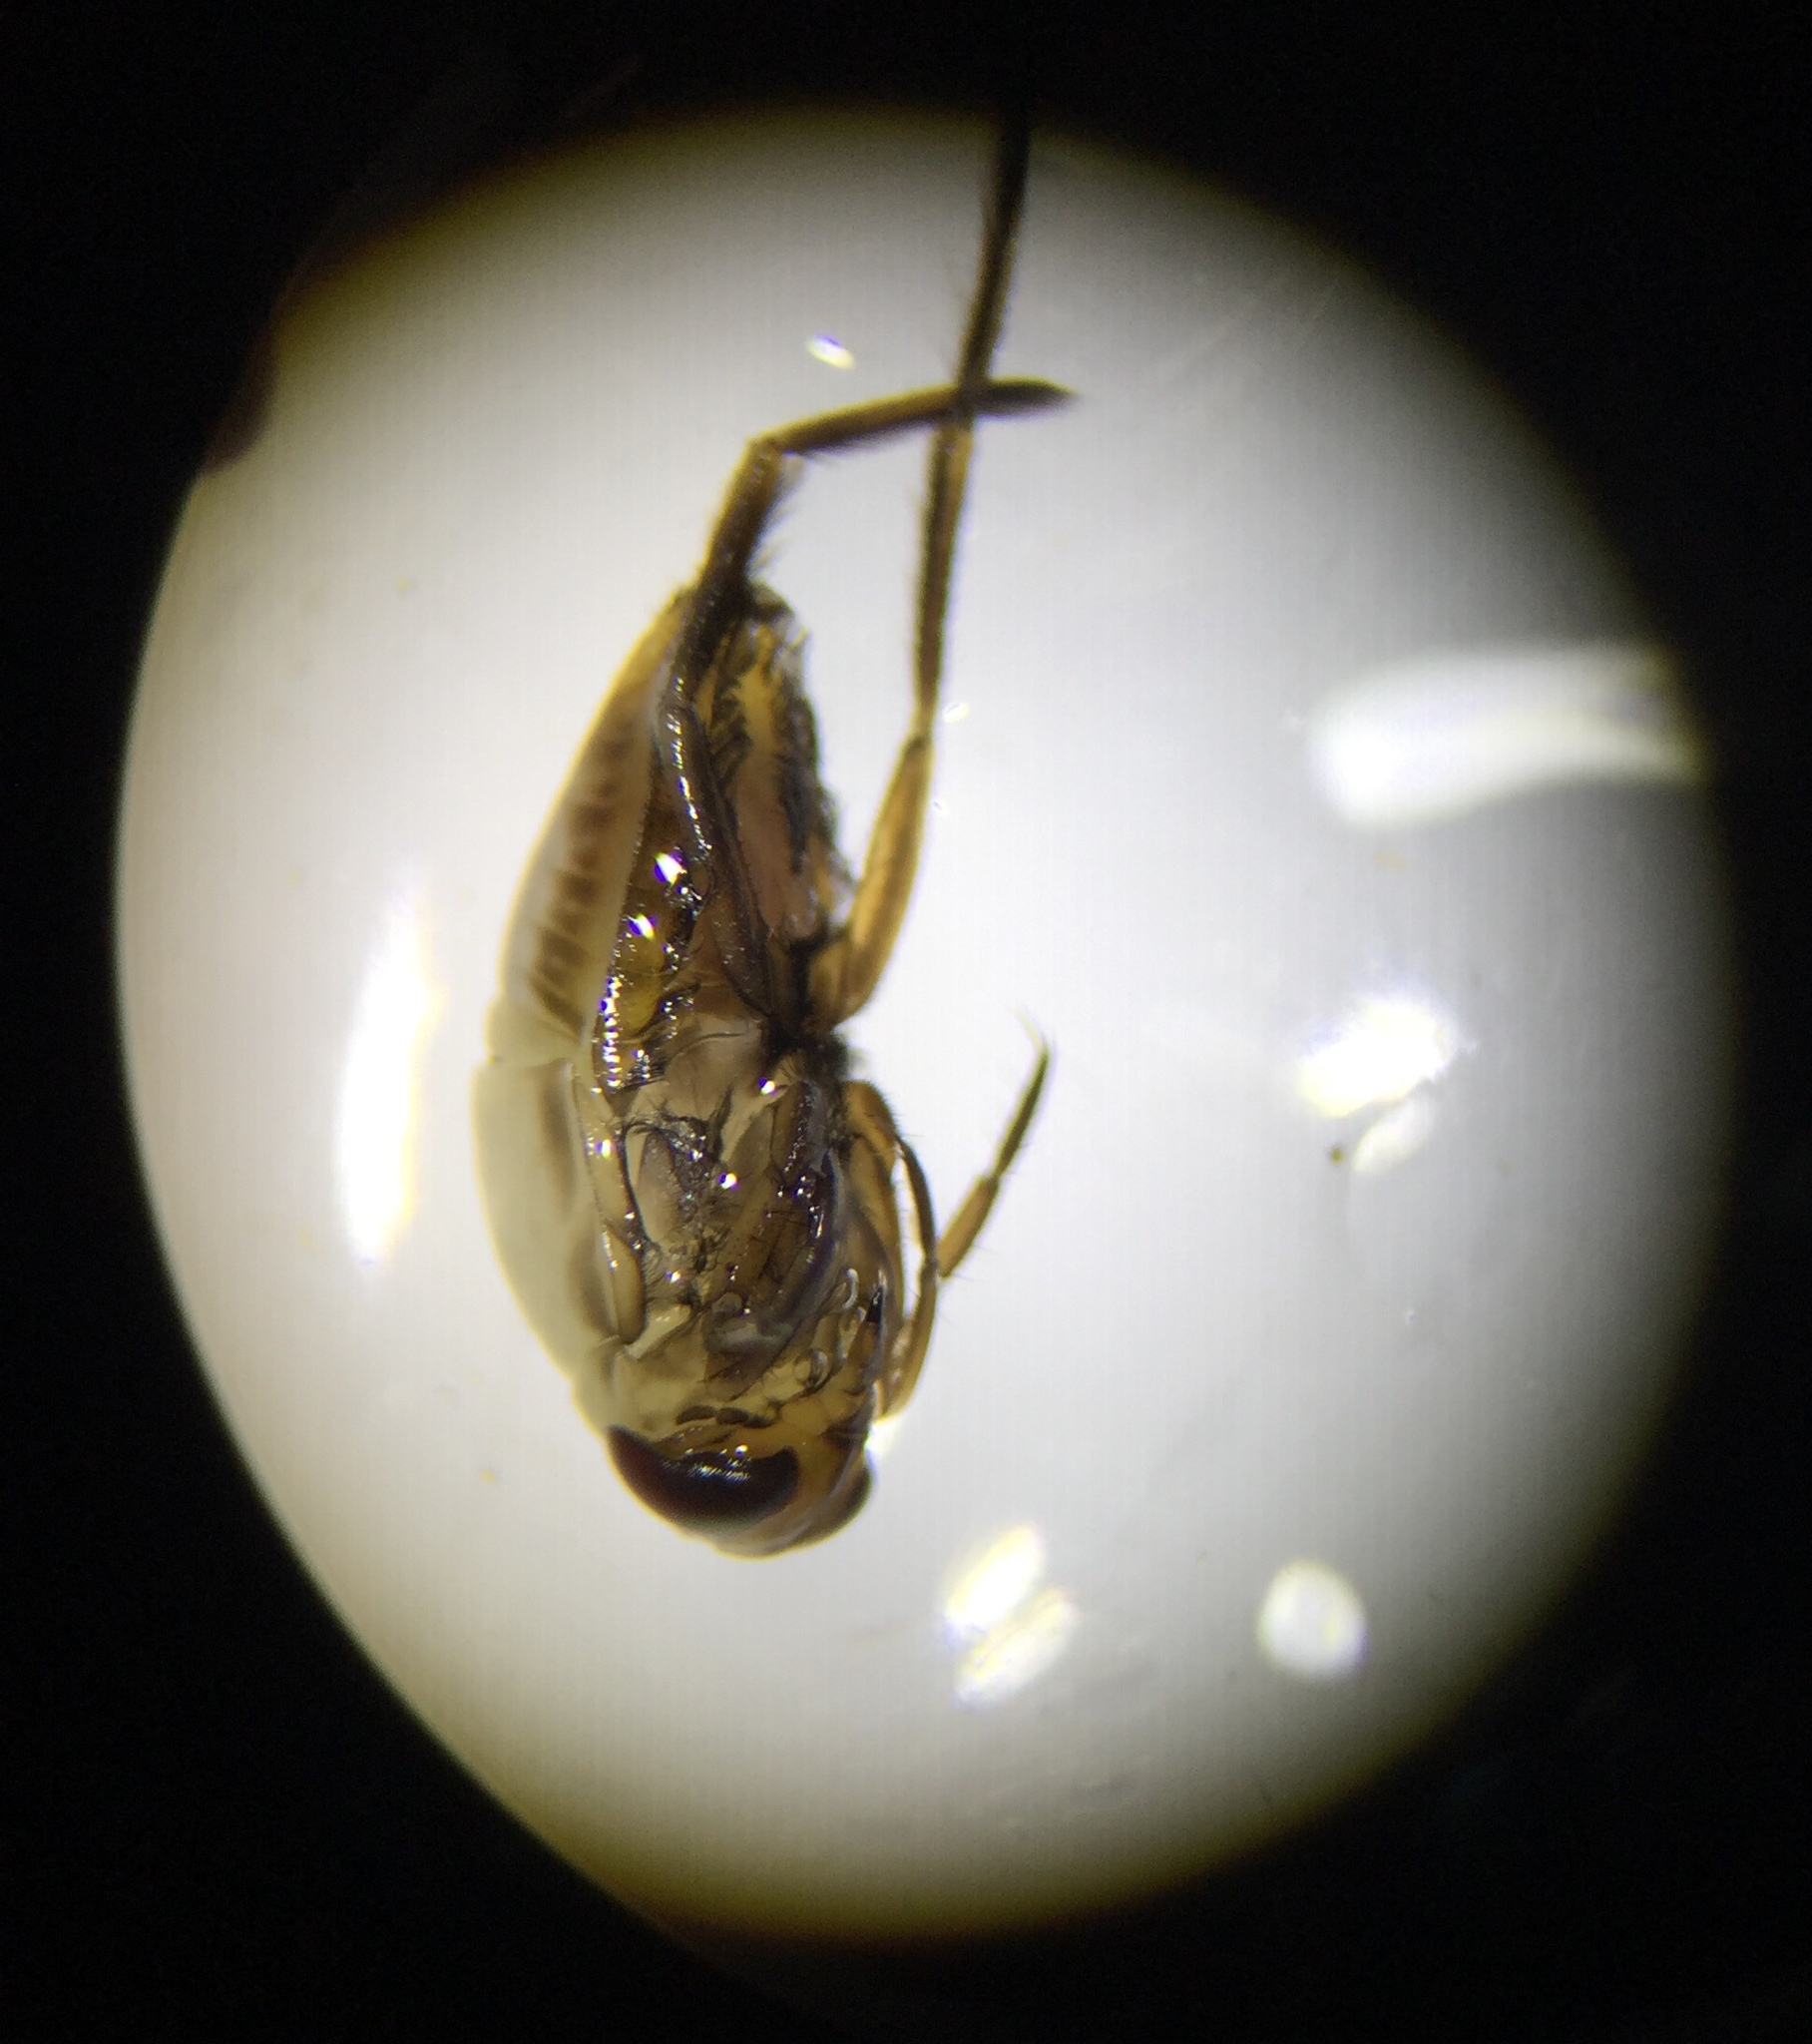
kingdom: Animalia
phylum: Arthropoda
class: Insecta
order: Hemiptera
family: Notonectidae
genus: Notonecta
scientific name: Notonecta
